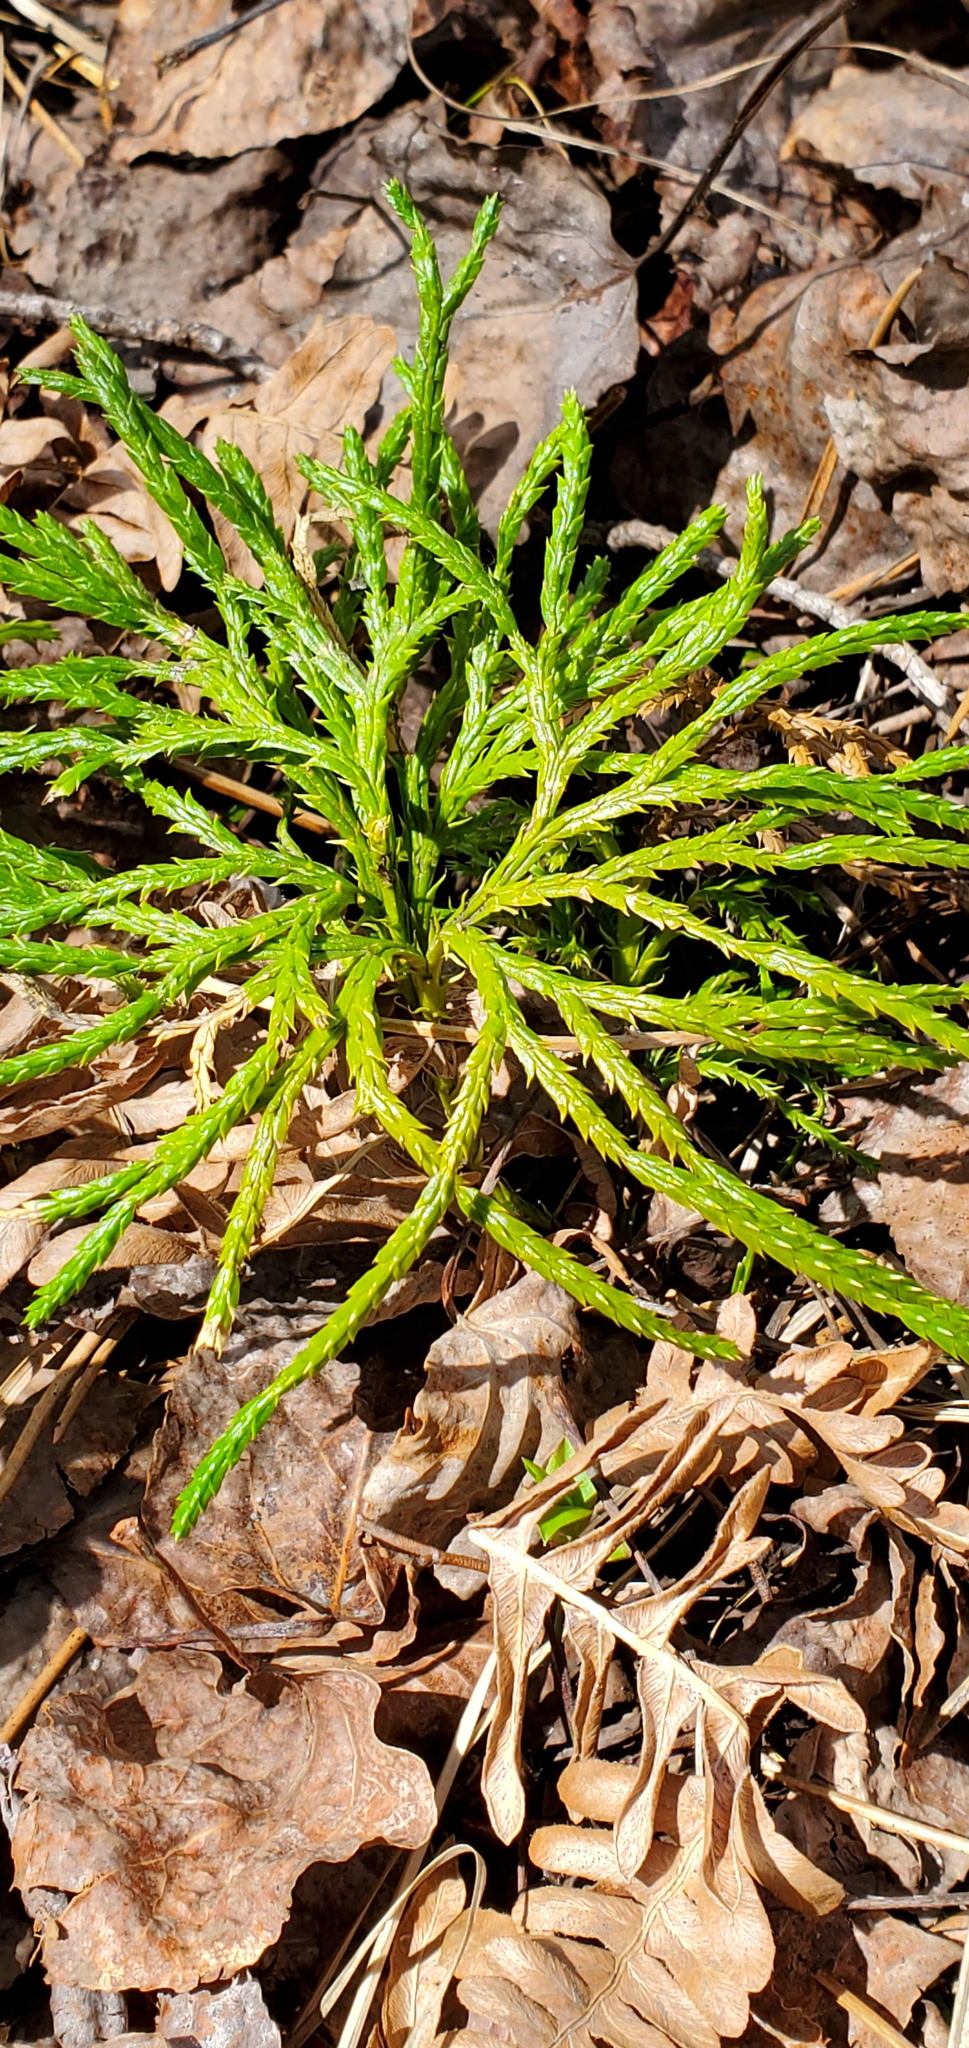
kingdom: Plantae
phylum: Tracheophyta
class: Lycopodiopsida
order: Lycopodiales
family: Lycopodiaceae
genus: Diphasiastrum
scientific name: Diphasiastrum complanatum
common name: Northern running-pine
